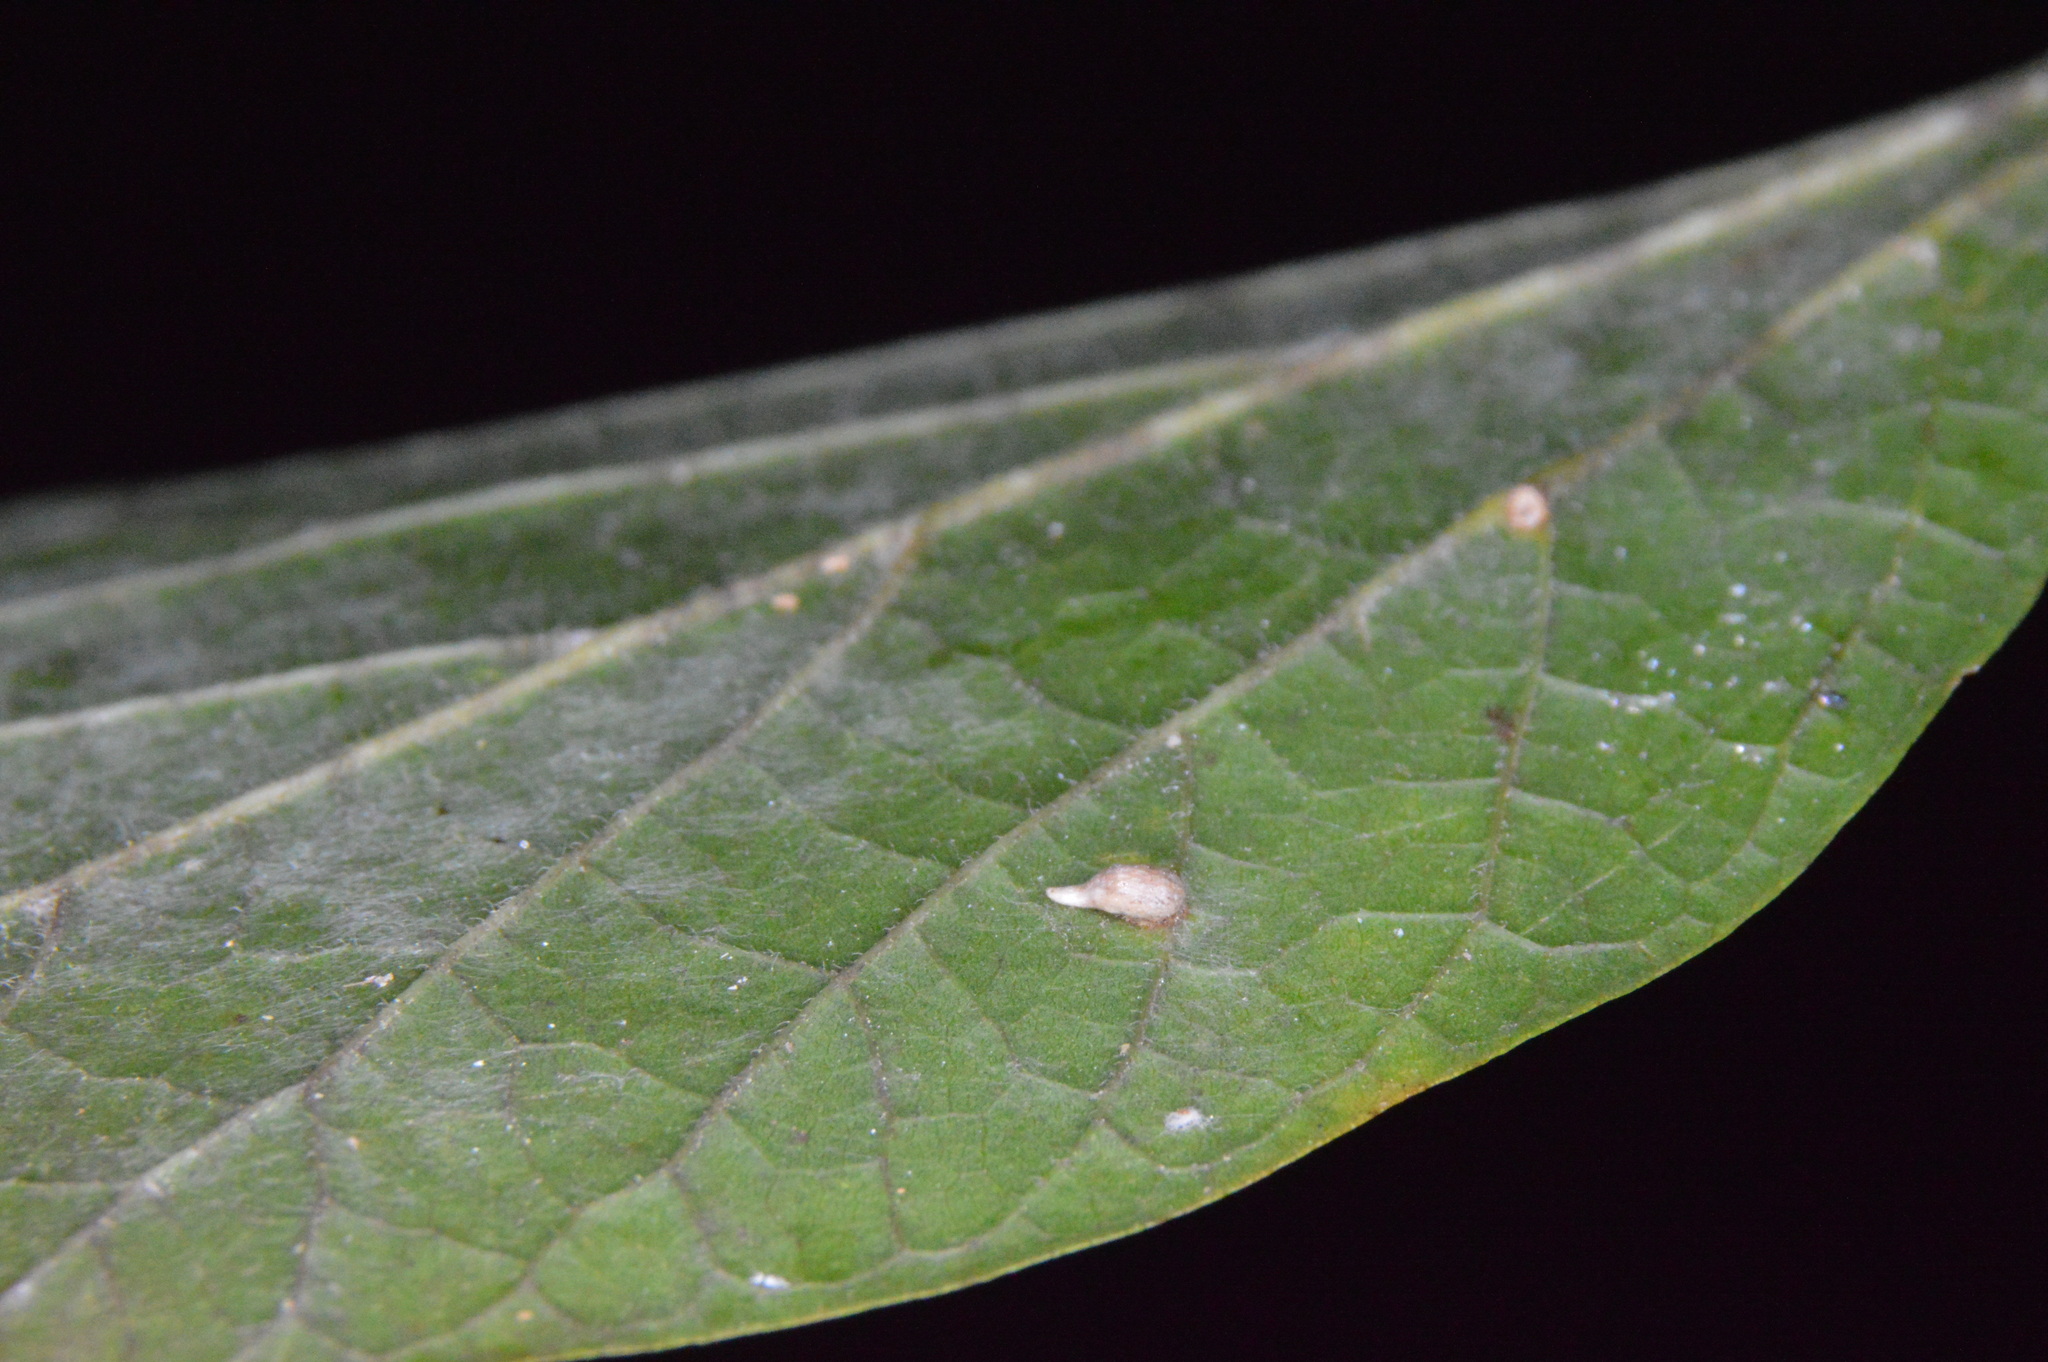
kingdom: Animalia
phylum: Arthropoda
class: Insecta
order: Diptera
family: Cecidomyiidae
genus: Celticecis
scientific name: Celticecis supina
